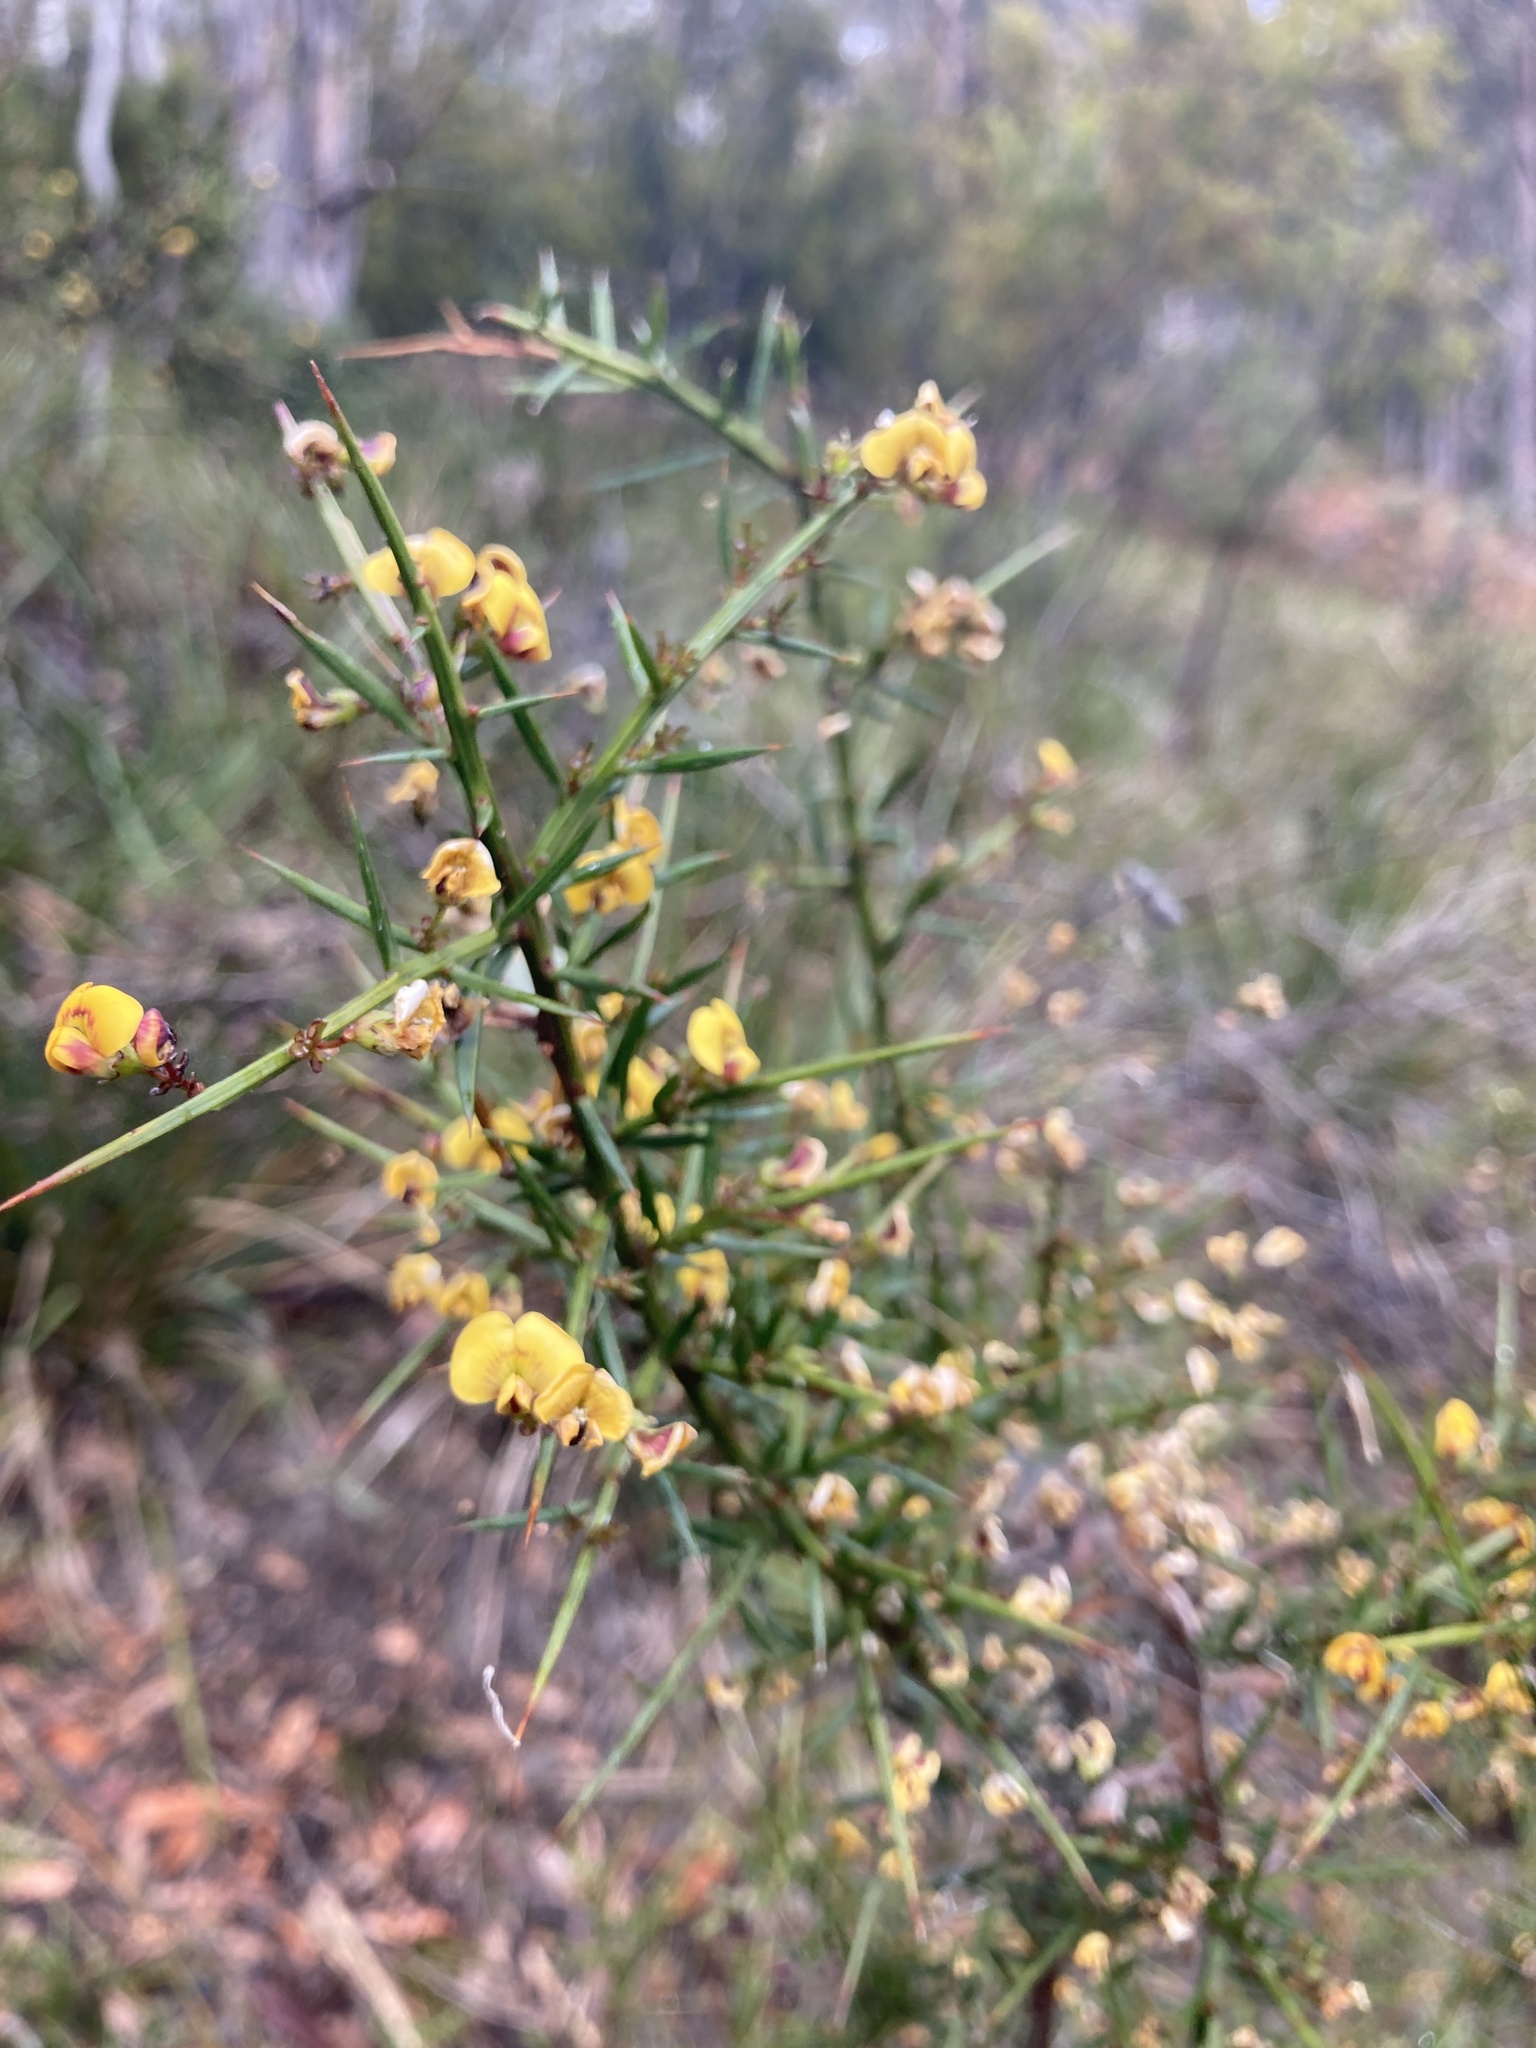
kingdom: Plantae
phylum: Tracheophyta
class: Magnoliopsida
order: Fabales
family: Fabaceae
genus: Daviesia
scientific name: Daviesia ulicifolia
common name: Gorse bitter-pea
